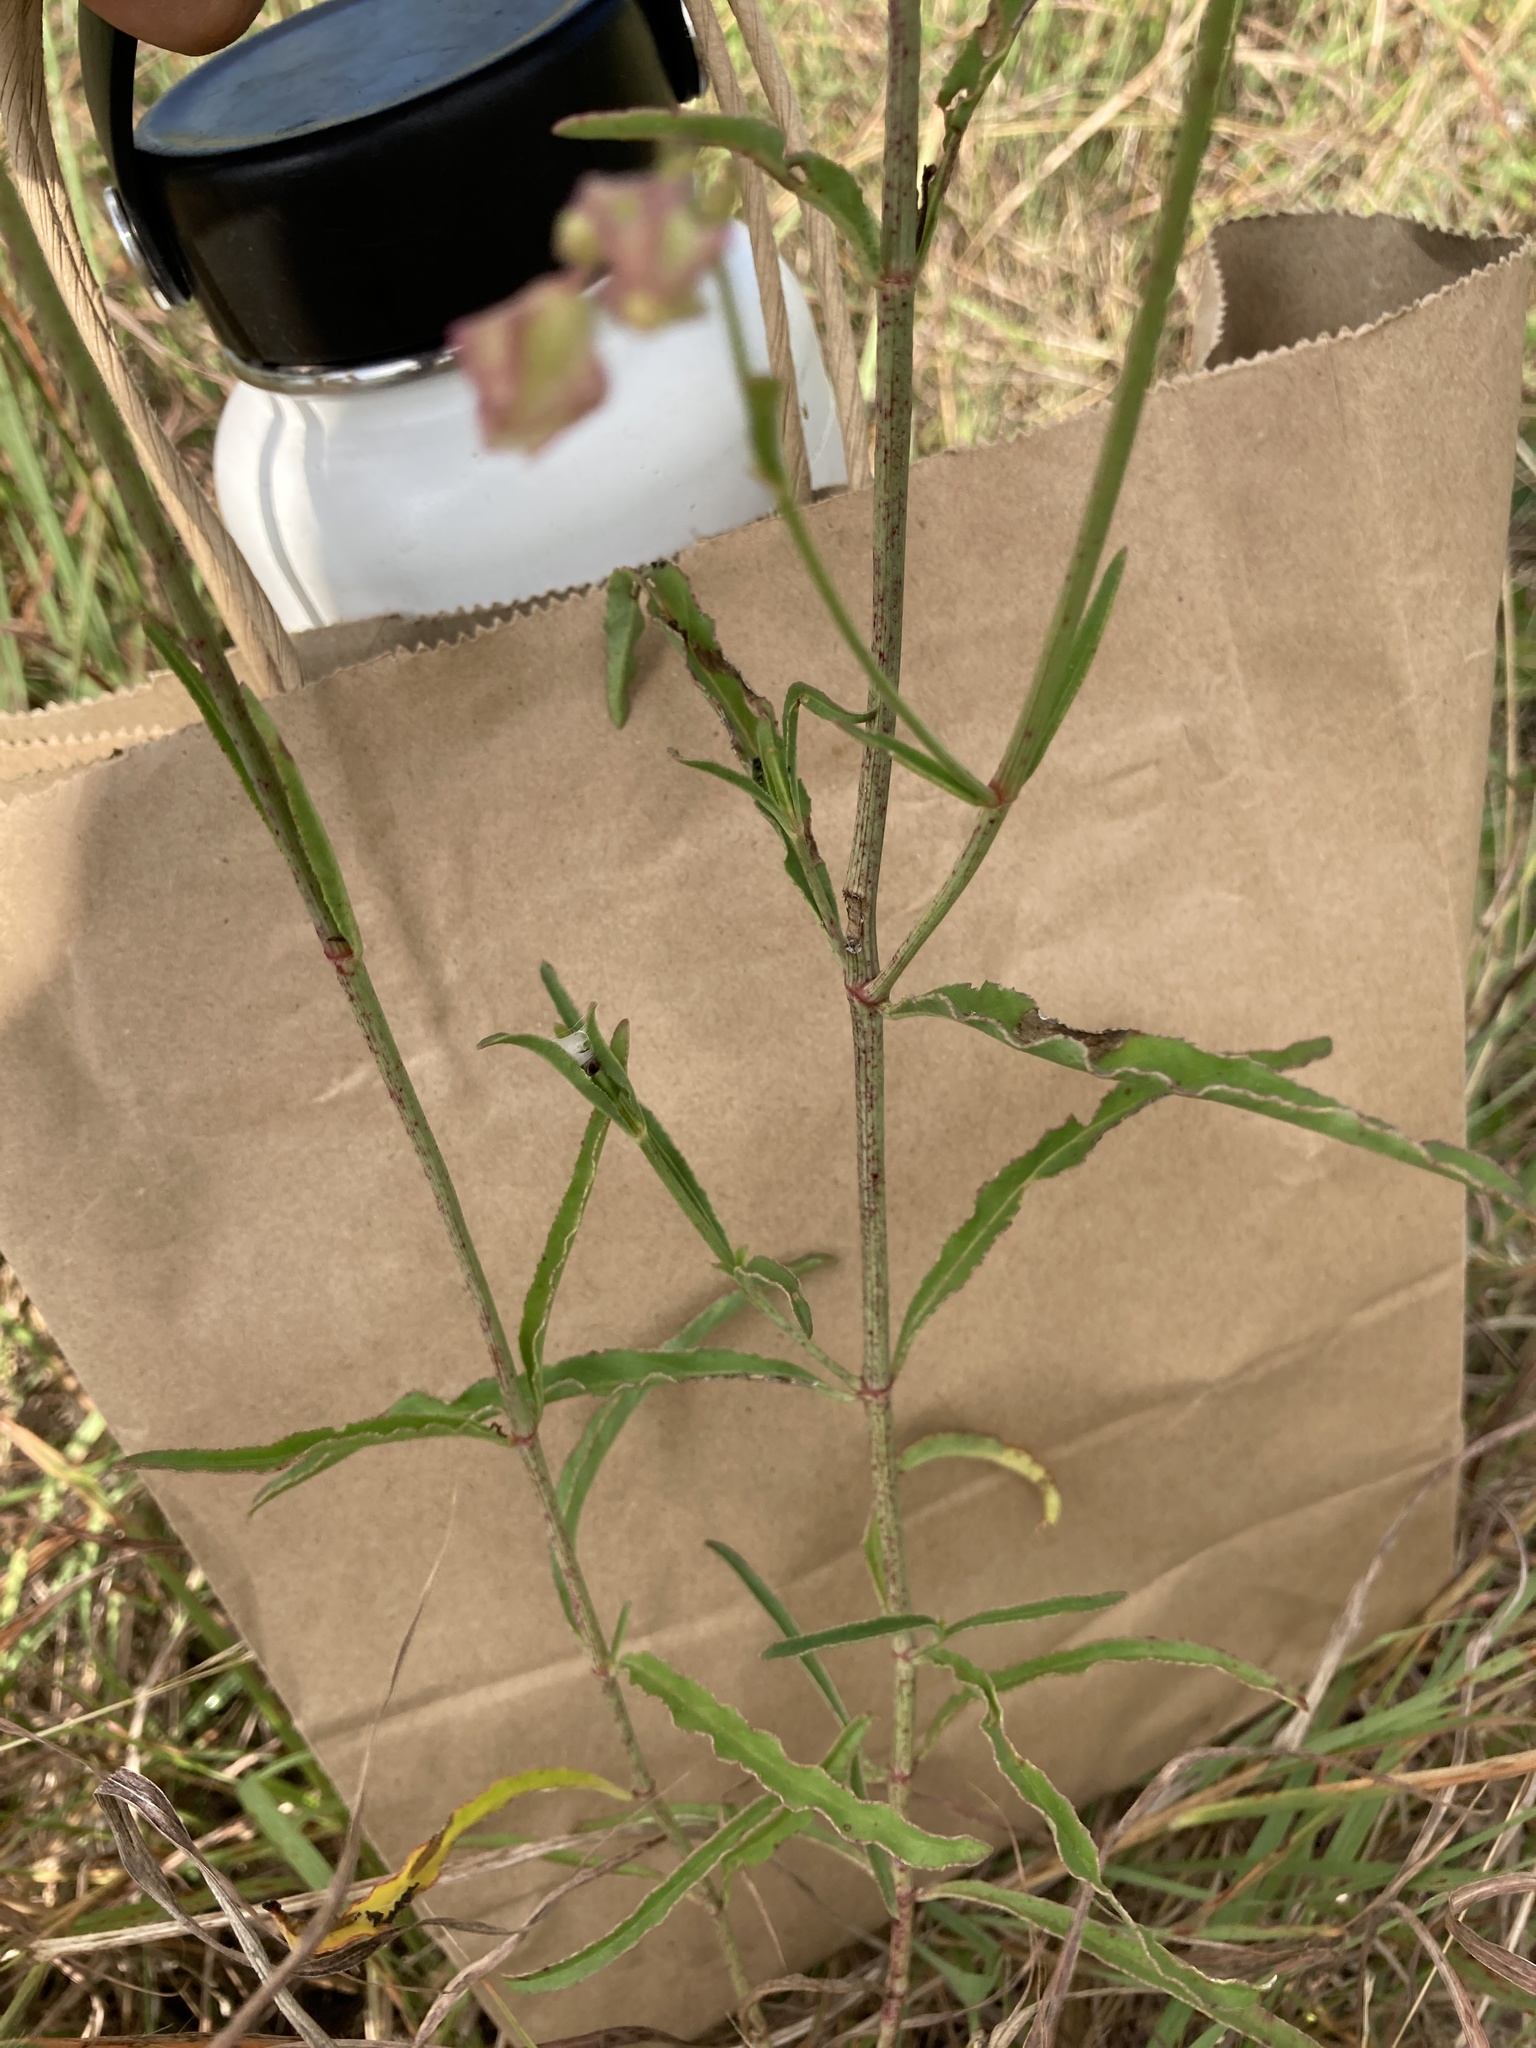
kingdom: Plantae
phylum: Tracheophyta
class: Magnoliopsida
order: Caryophyllales
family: Nyctaginaceae
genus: Mirabilis
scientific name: Mirabilis linearis
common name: Linear-leaved four-o'clock
